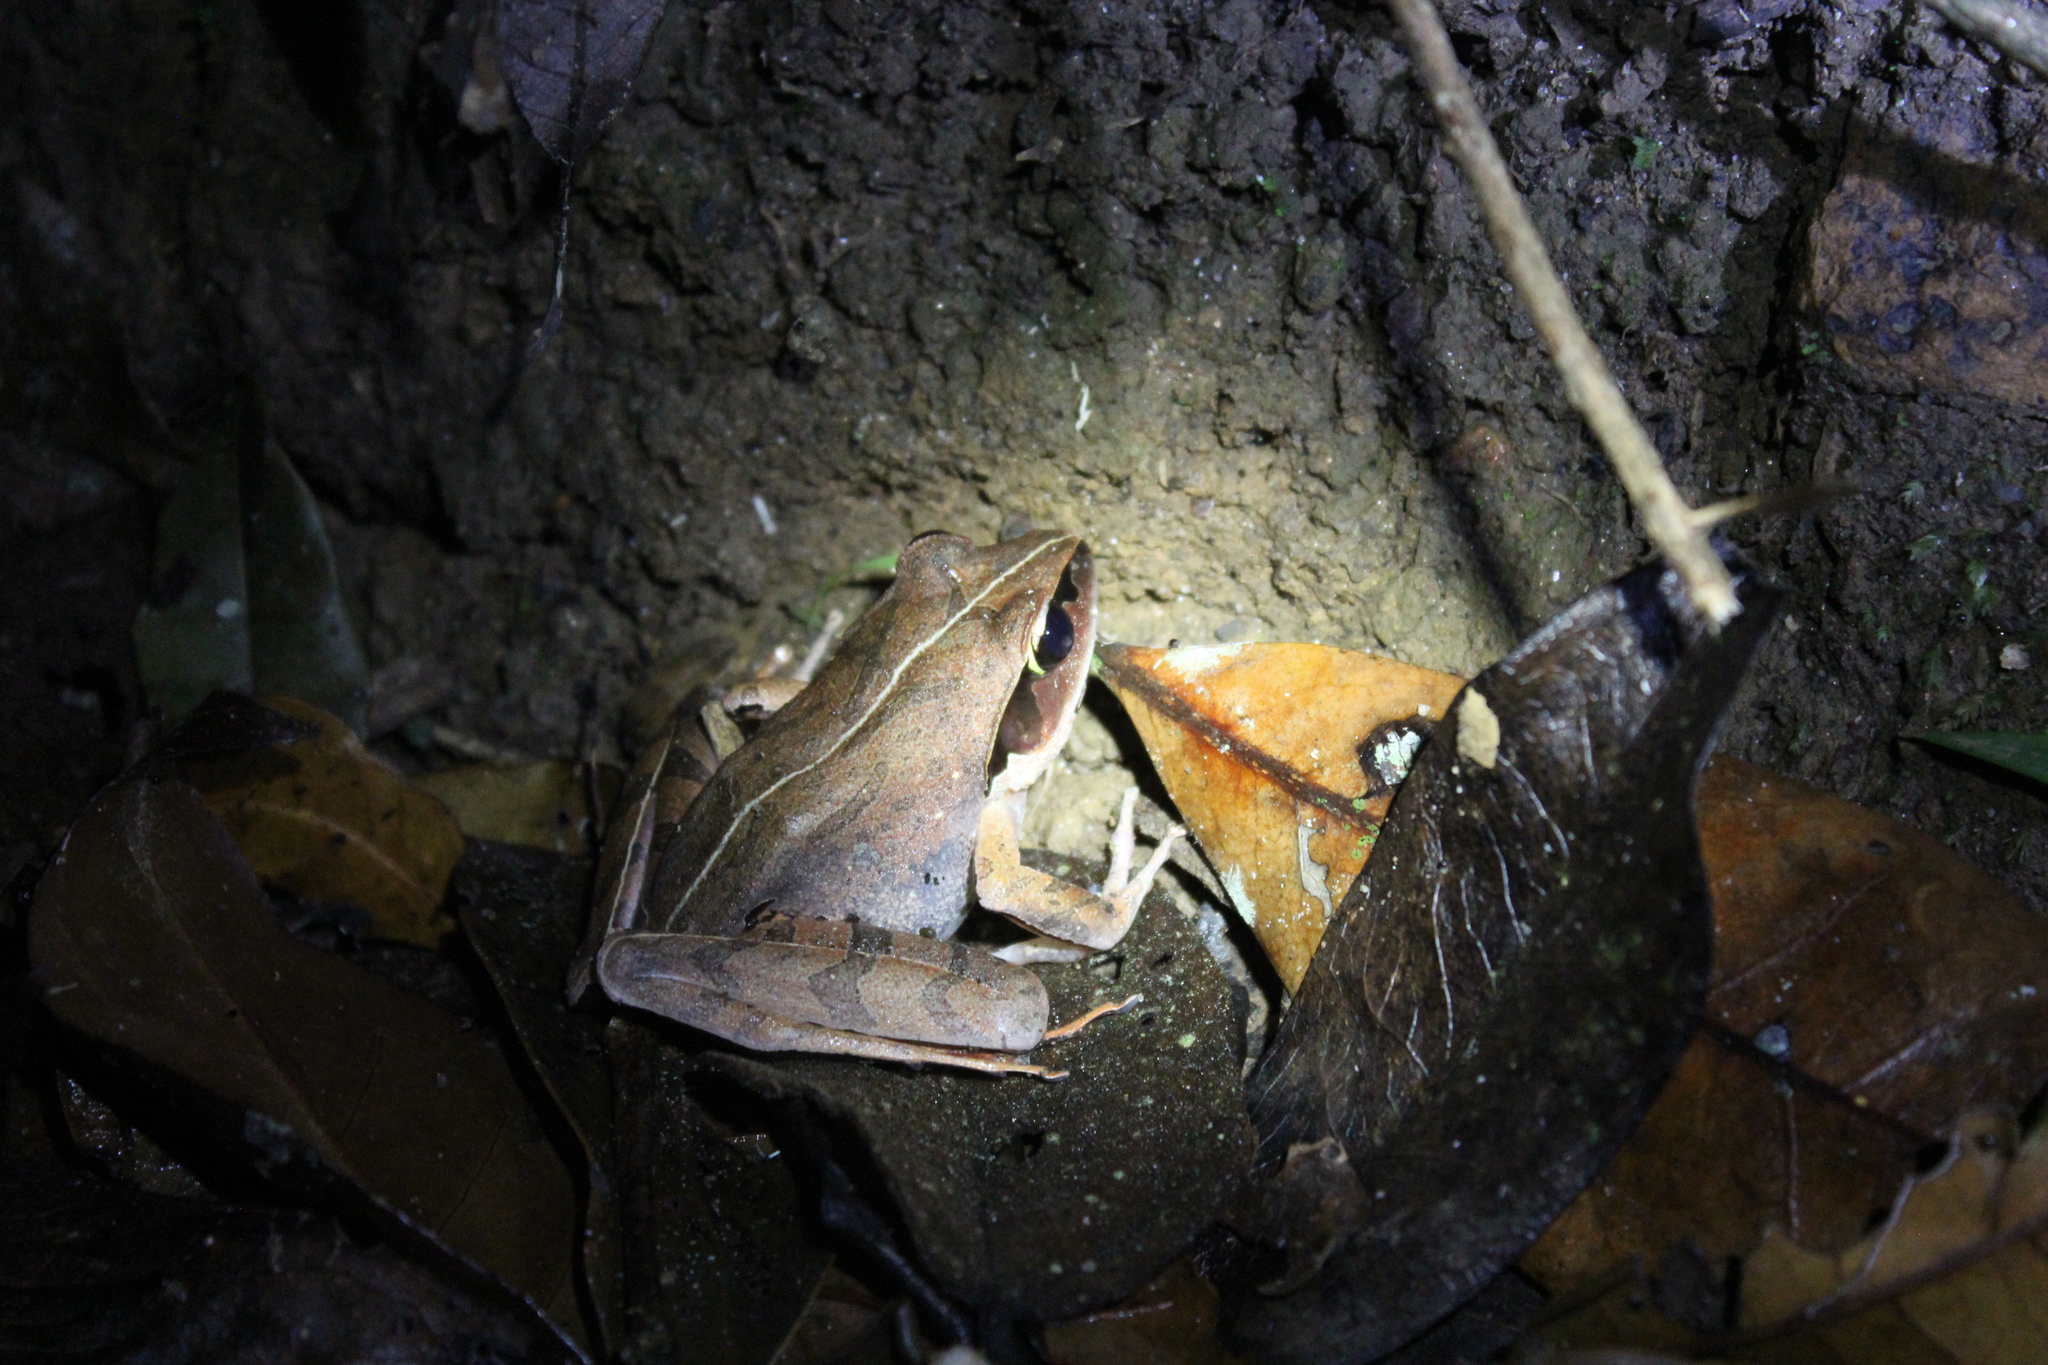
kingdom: Animalia
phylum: Chordata
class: Amphibia
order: Anura
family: Mantellidae
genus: Aglyptodactylus
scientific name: Aglyptodactylus madagascariensis
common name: Madagascar jumping frog
